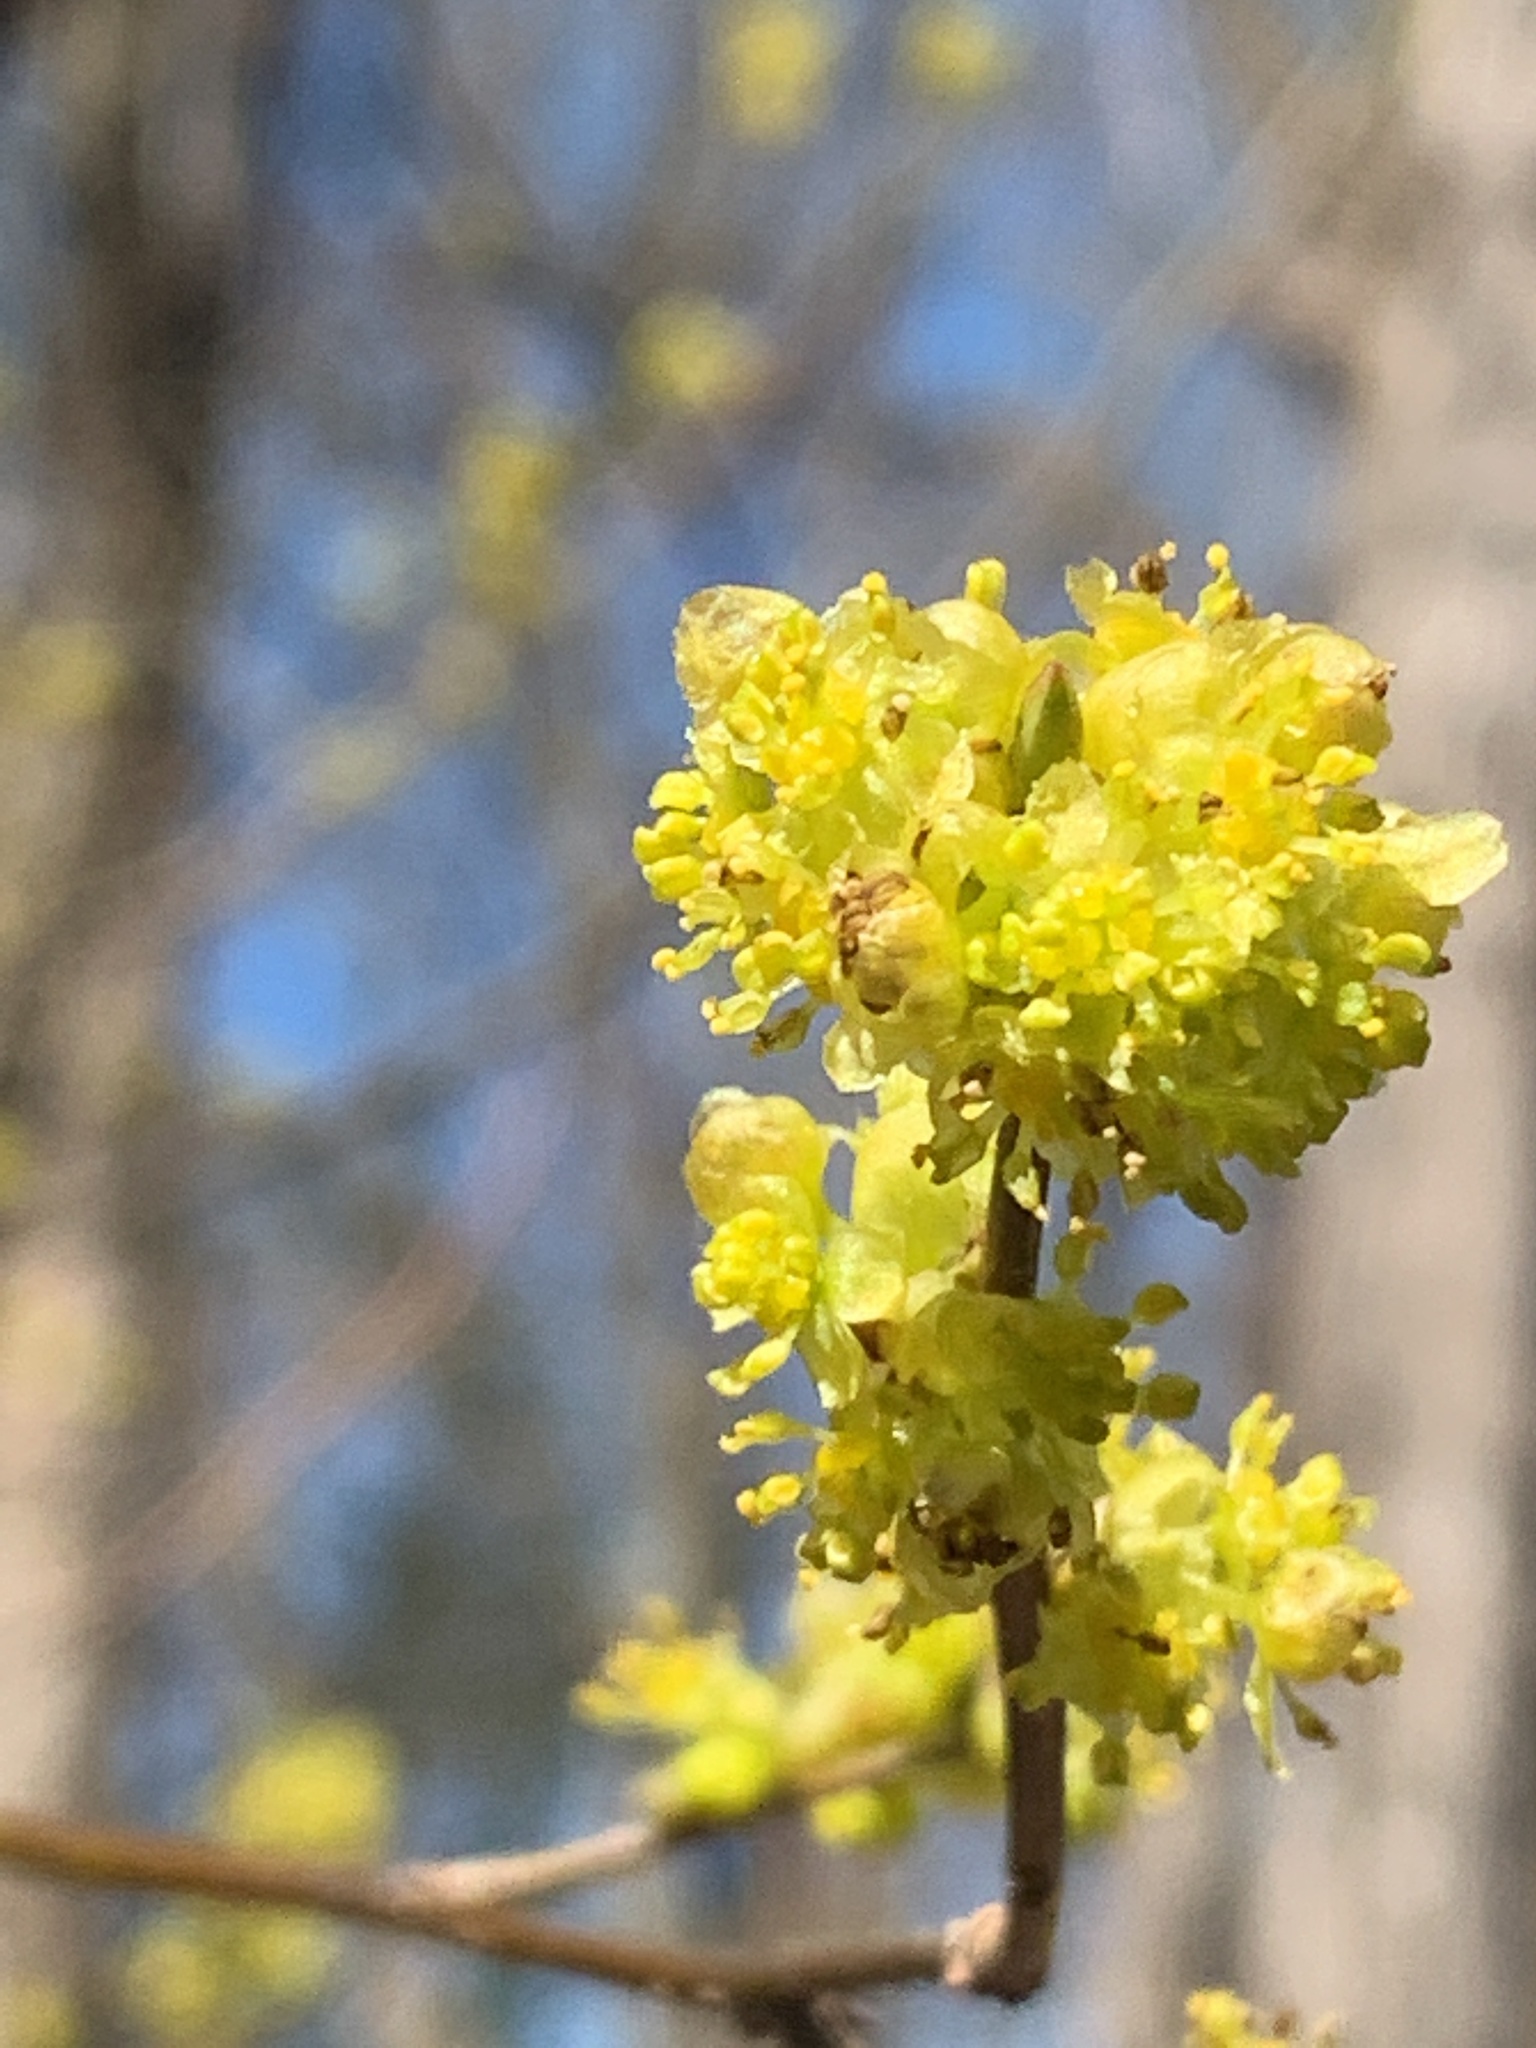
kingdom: Plantae
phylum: Tracheophyta
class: Magnoliopsida
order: Laurales
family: Lauraceae
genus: Lindera
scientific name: Lindera benzoin
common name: Spicebush
